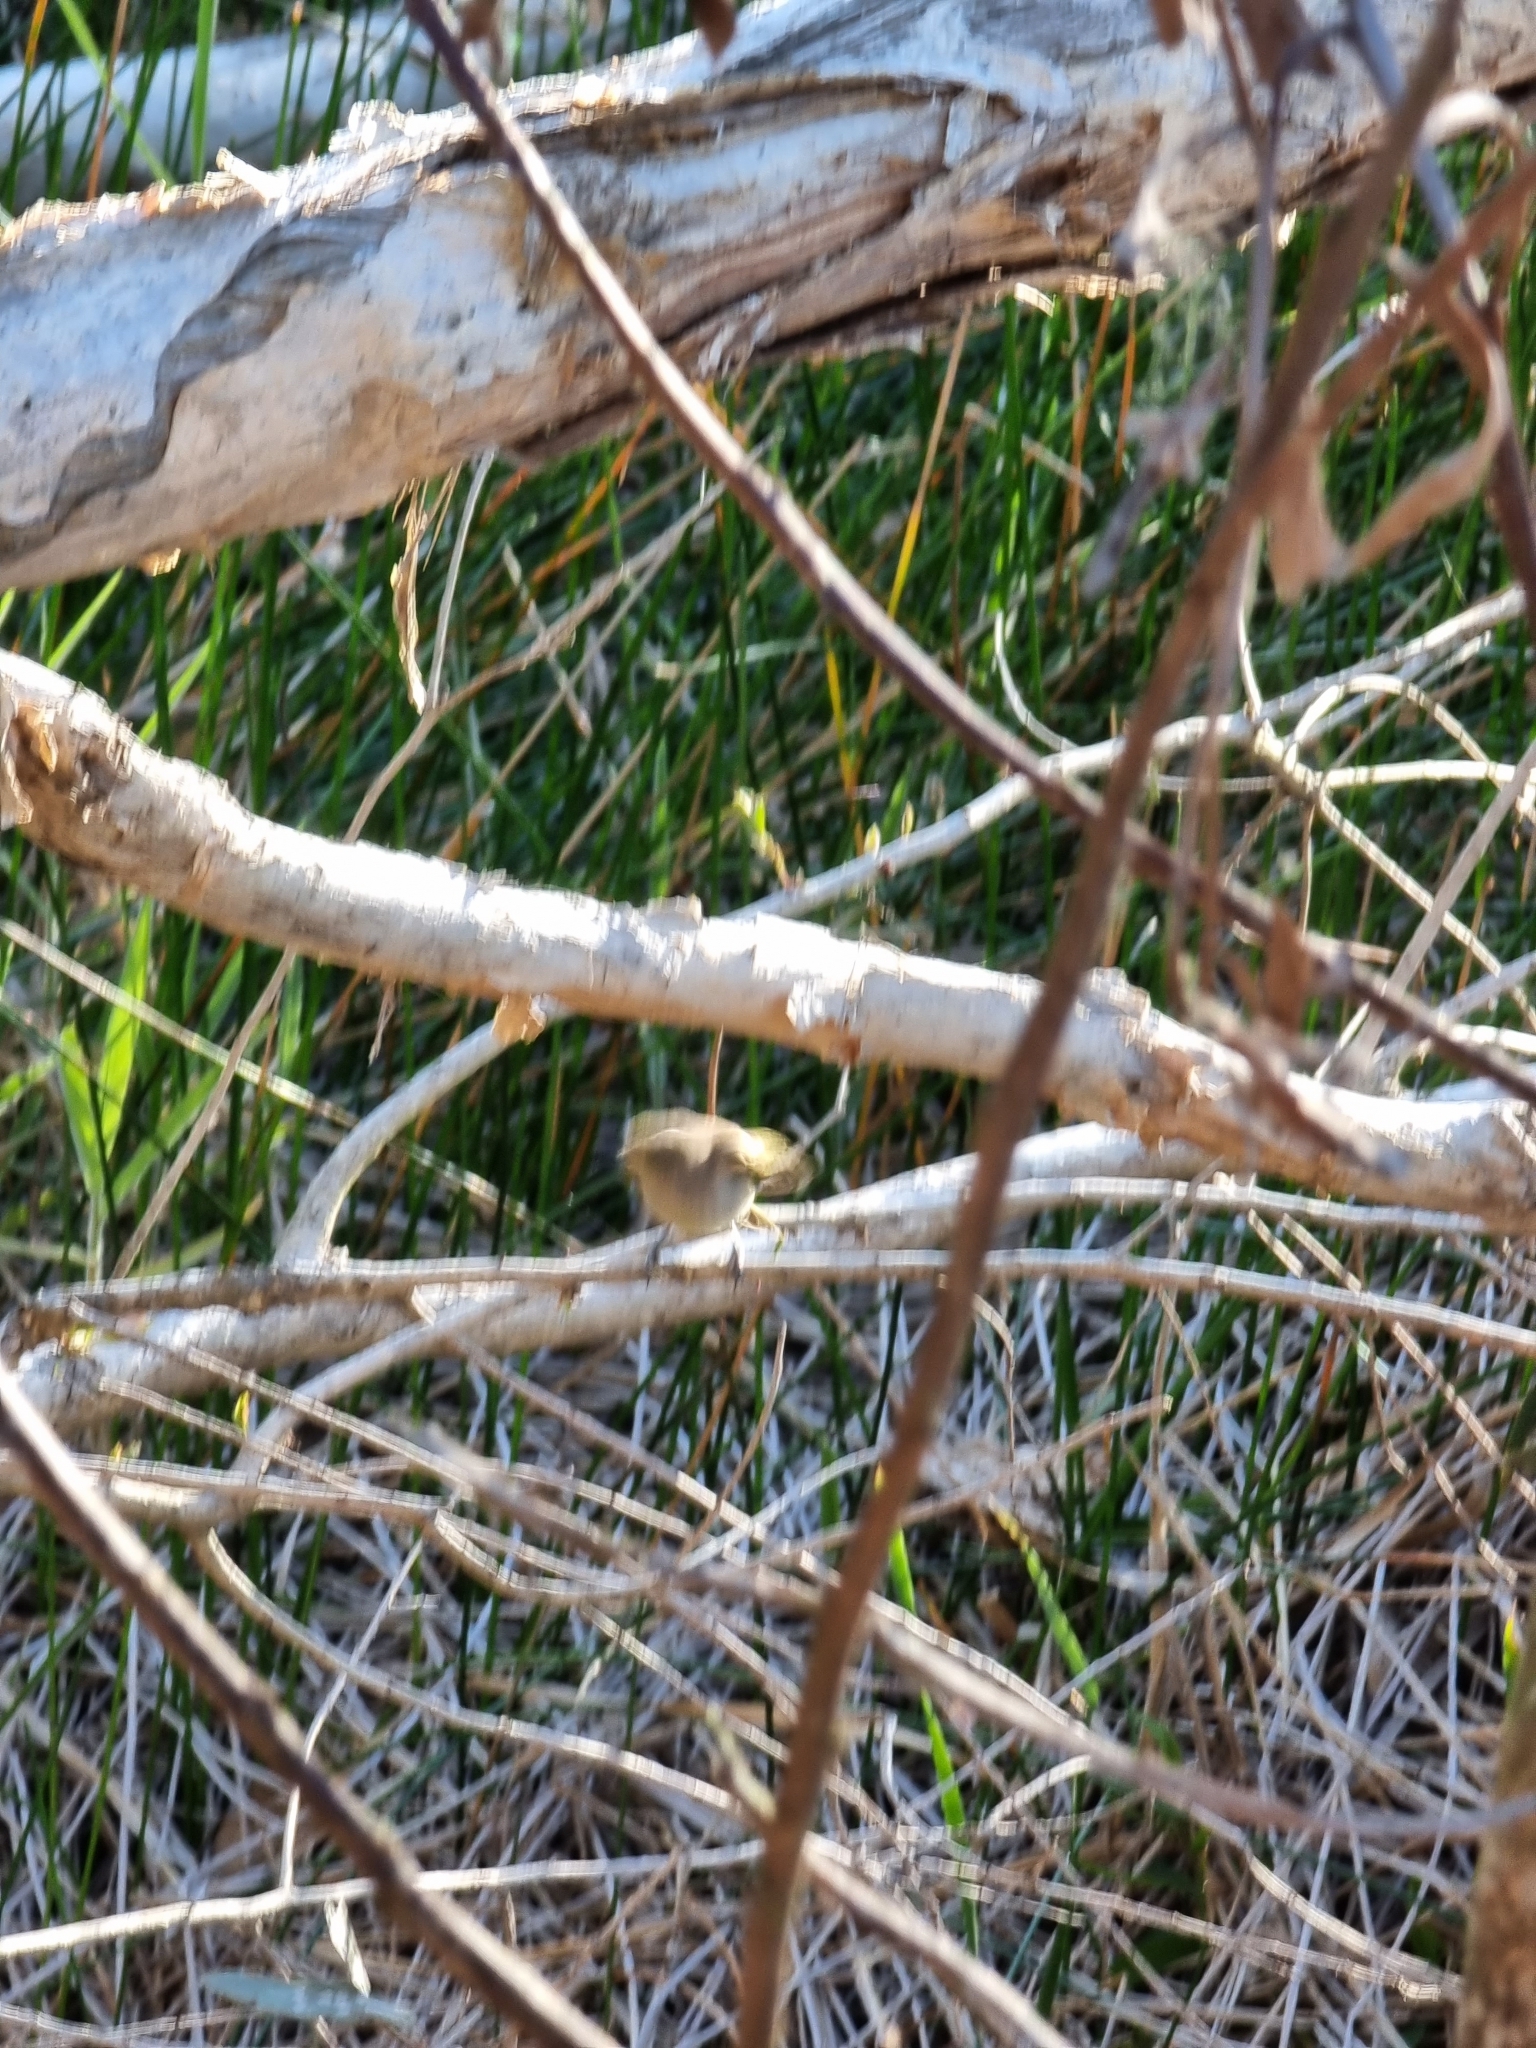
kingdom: Animalia
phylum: Chordata
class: Aves
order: Passeriformes
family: Meliphagidae
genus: Lichmera
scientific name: Lichmera indistincta
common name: Brown honeyeater
